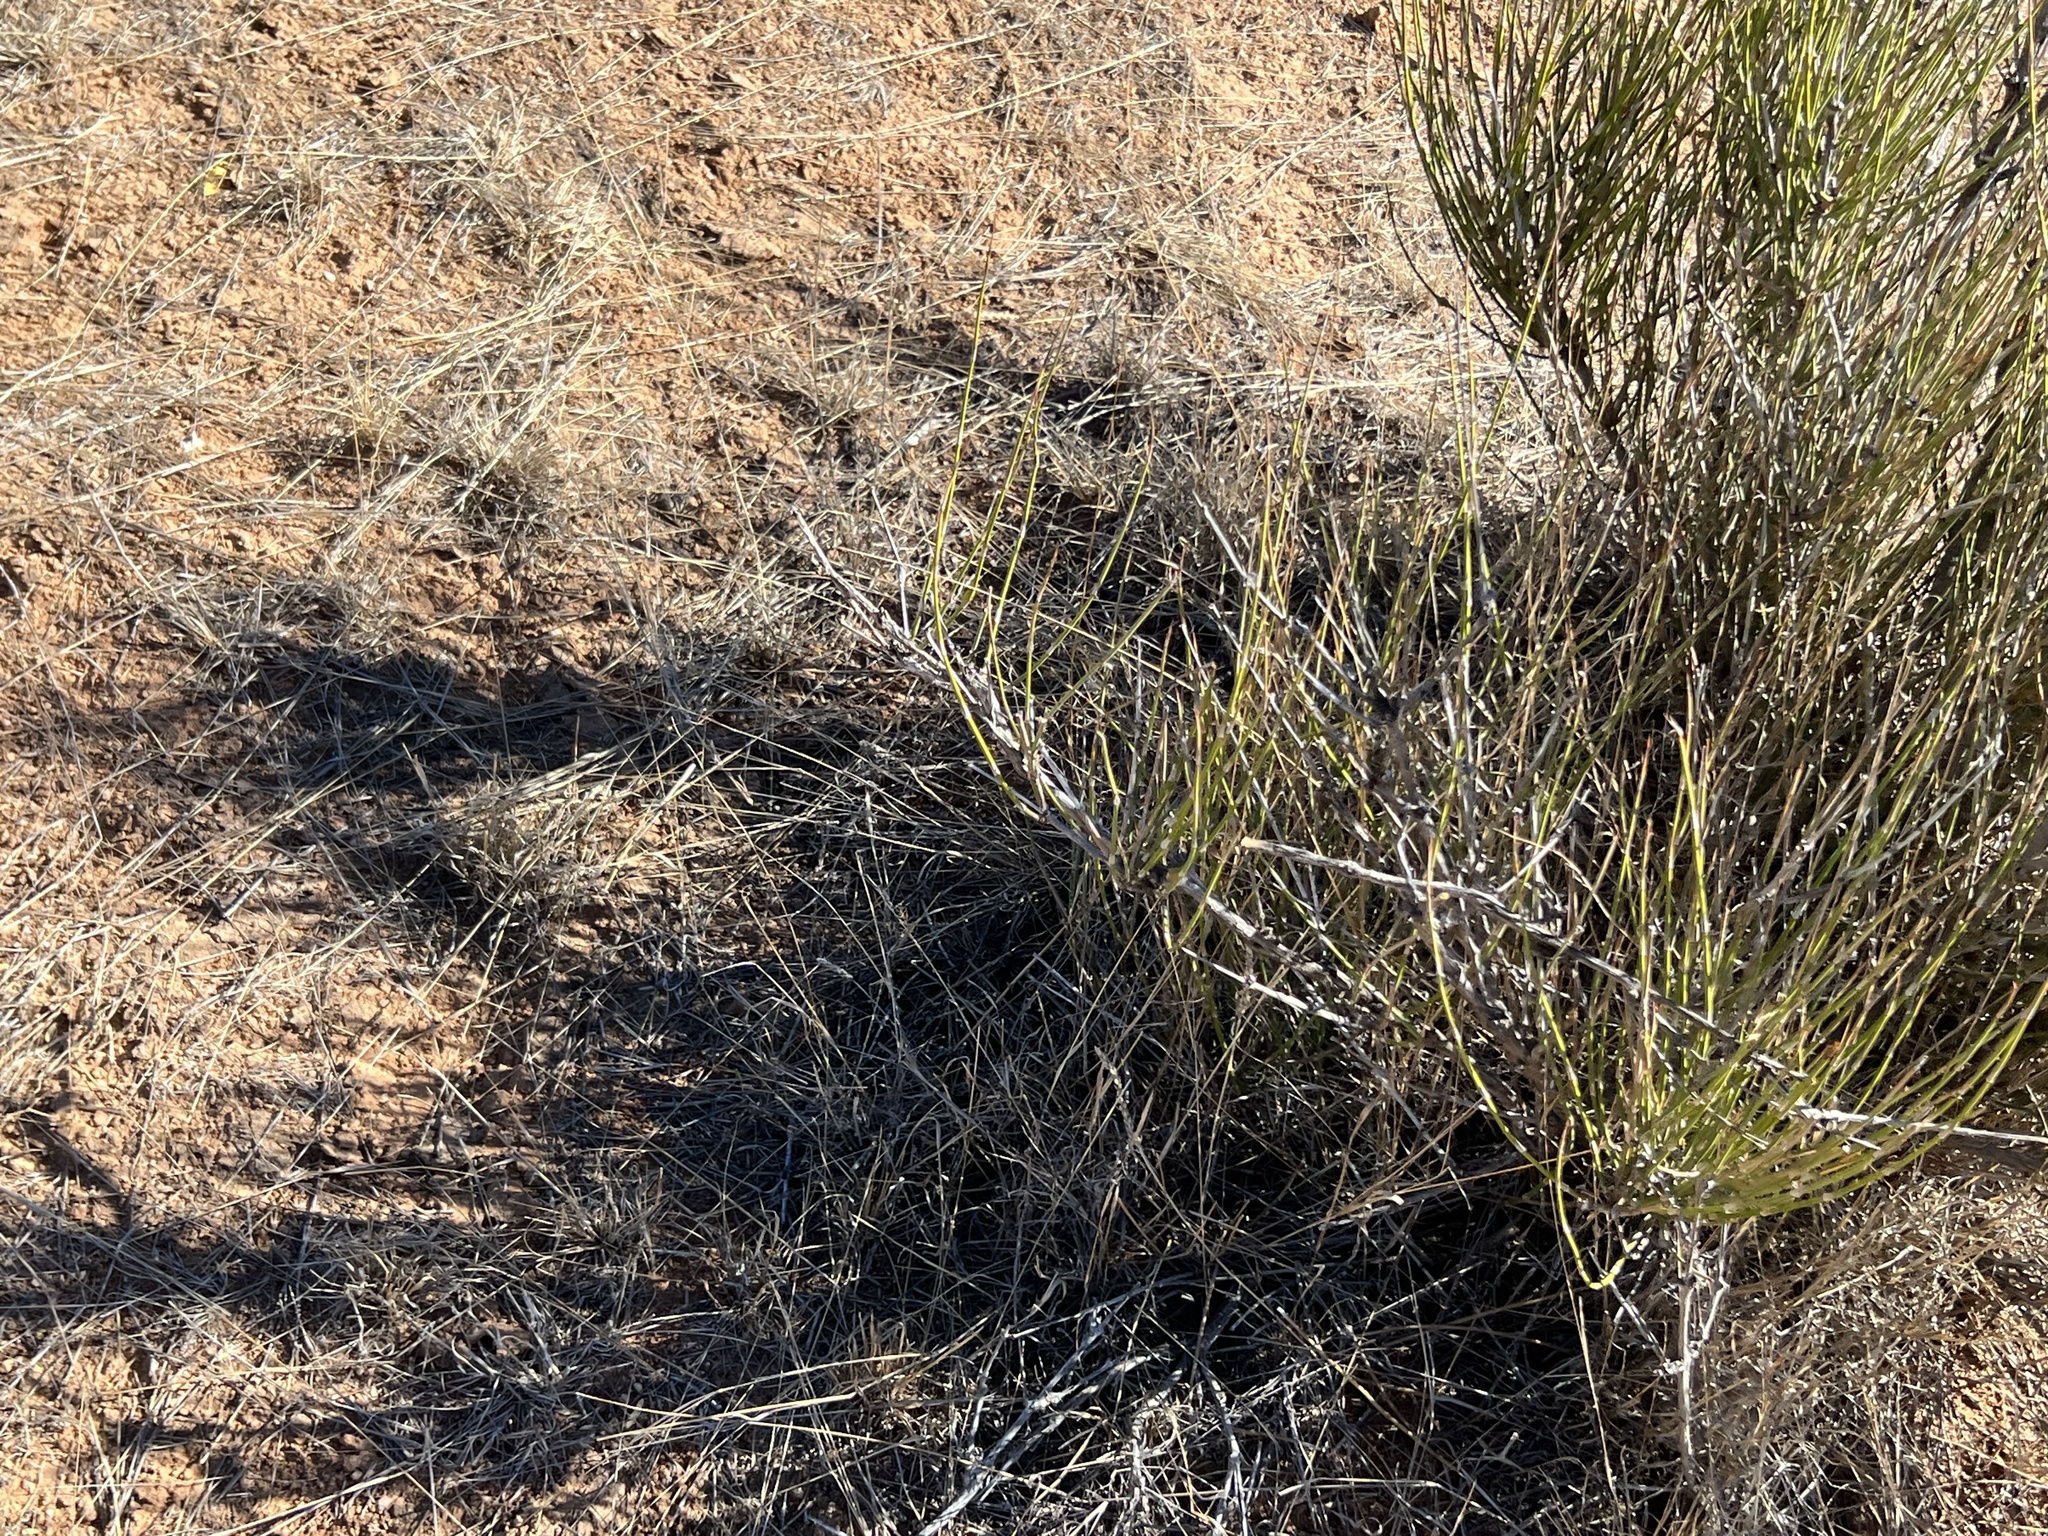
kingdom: Plantae
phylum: Tracheophyta
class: Gnetopsida
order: Ephedrales
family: Ephedraceae
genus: Ephedra
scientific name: Ephedra trifurca
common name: Mexican-tea
